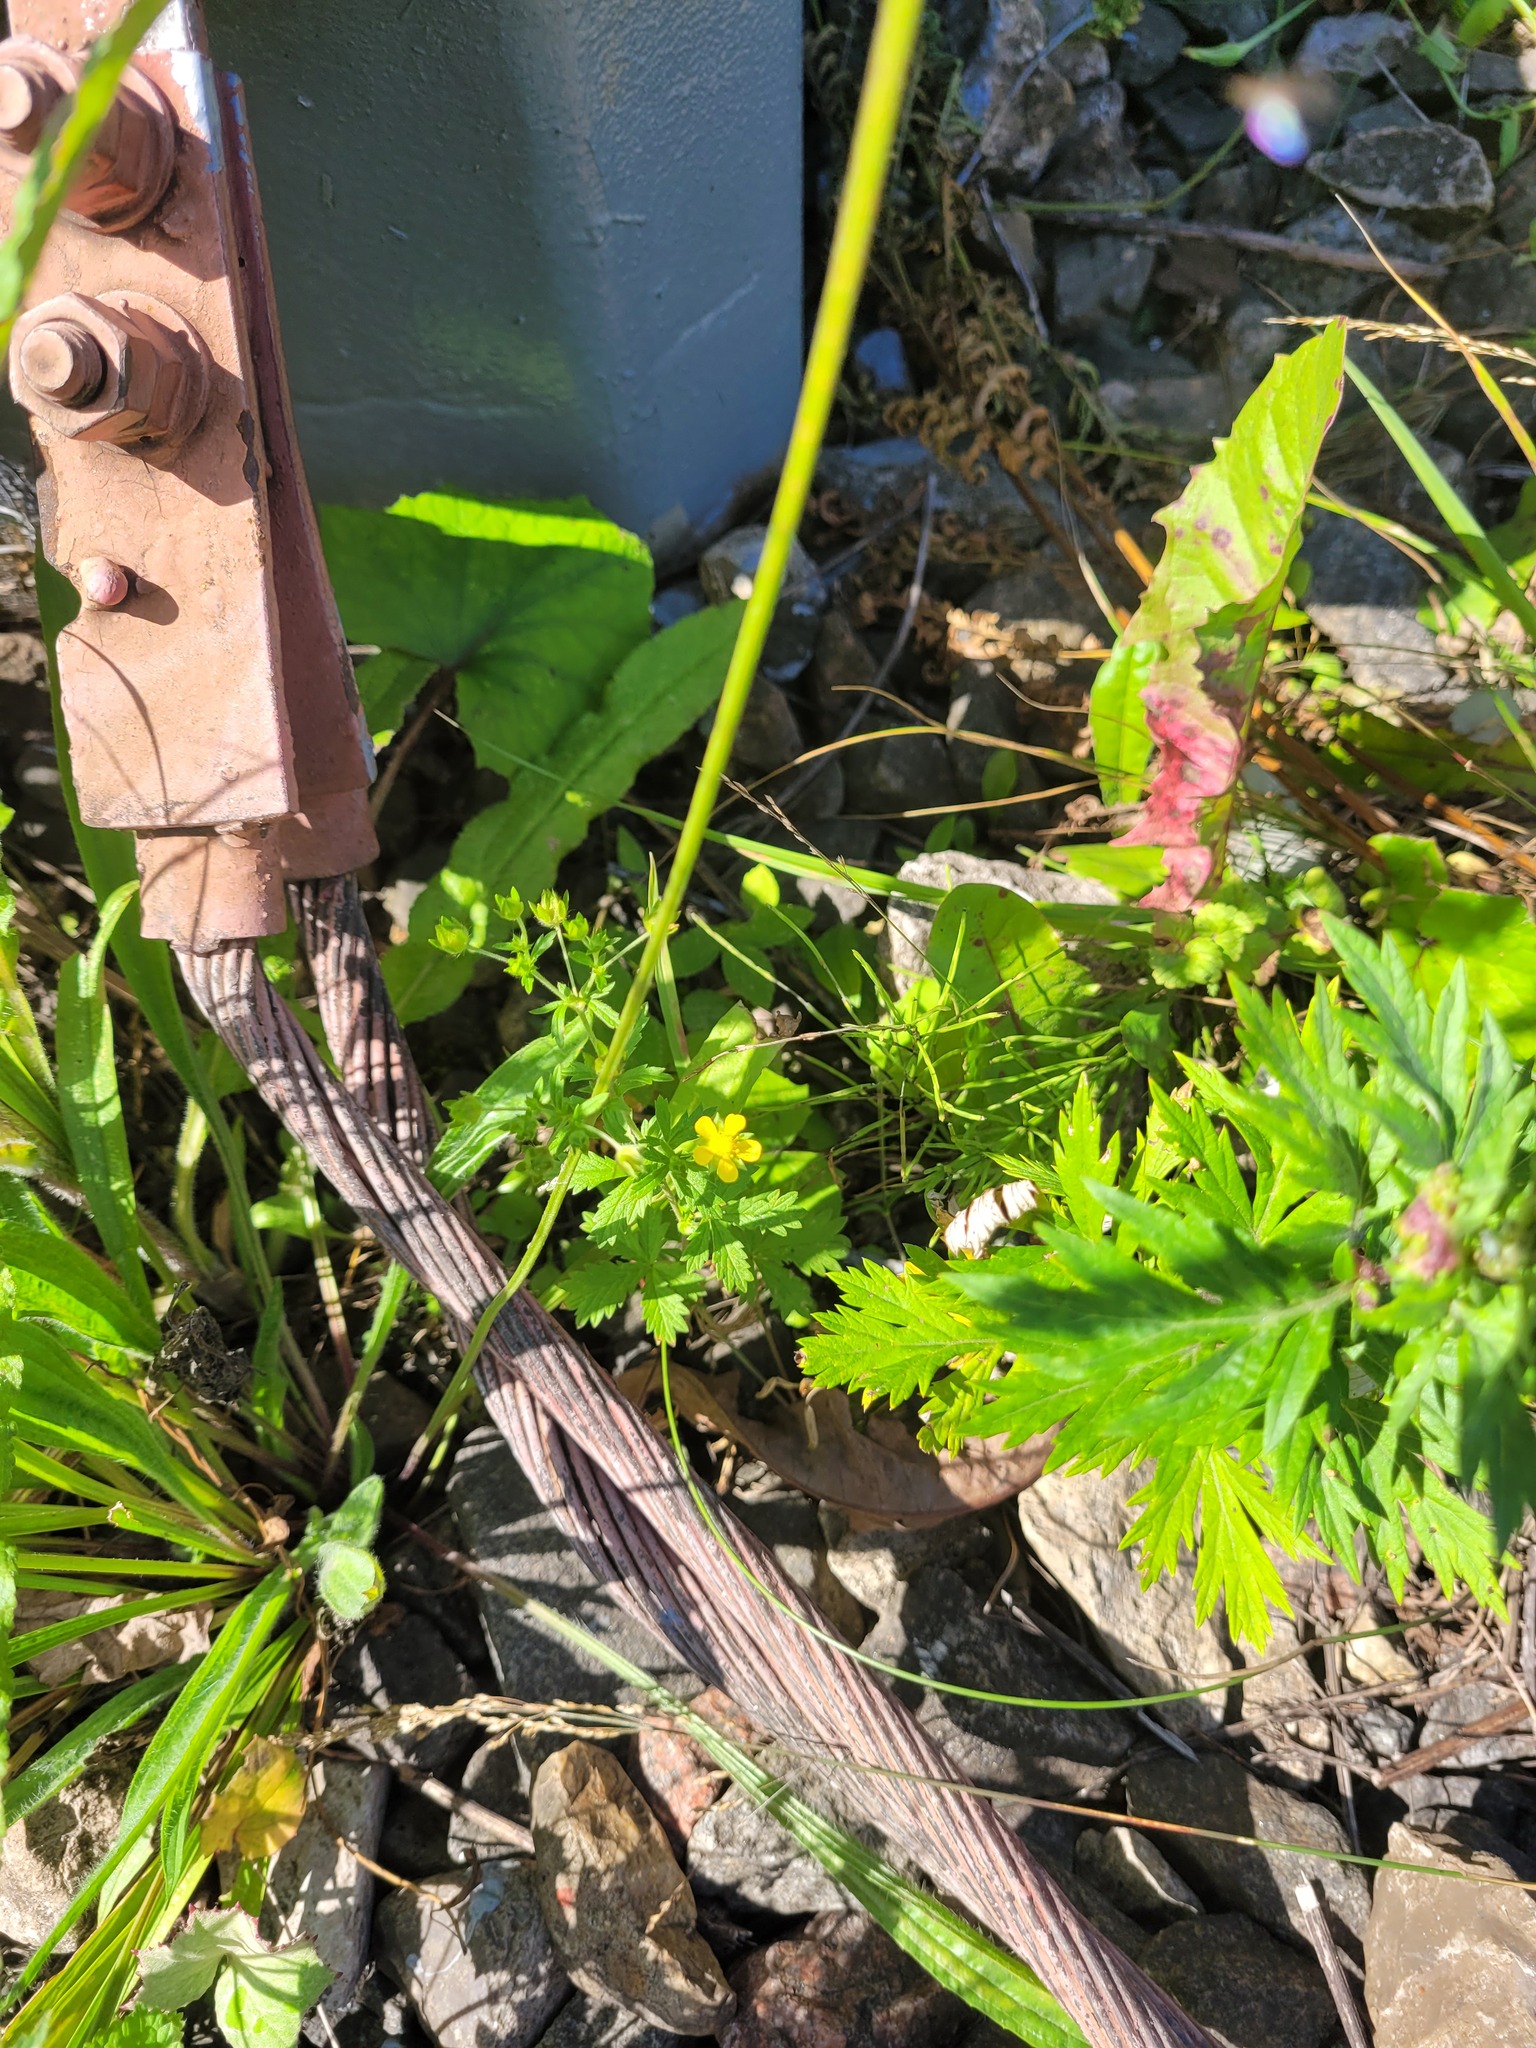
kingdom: Plantae
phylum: Tracheophyta
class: Magnoliopsida
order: Rosales
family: Rosaceae
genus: Potentilla
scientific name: Potentilla intermedia
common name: Downy cinquefoil
